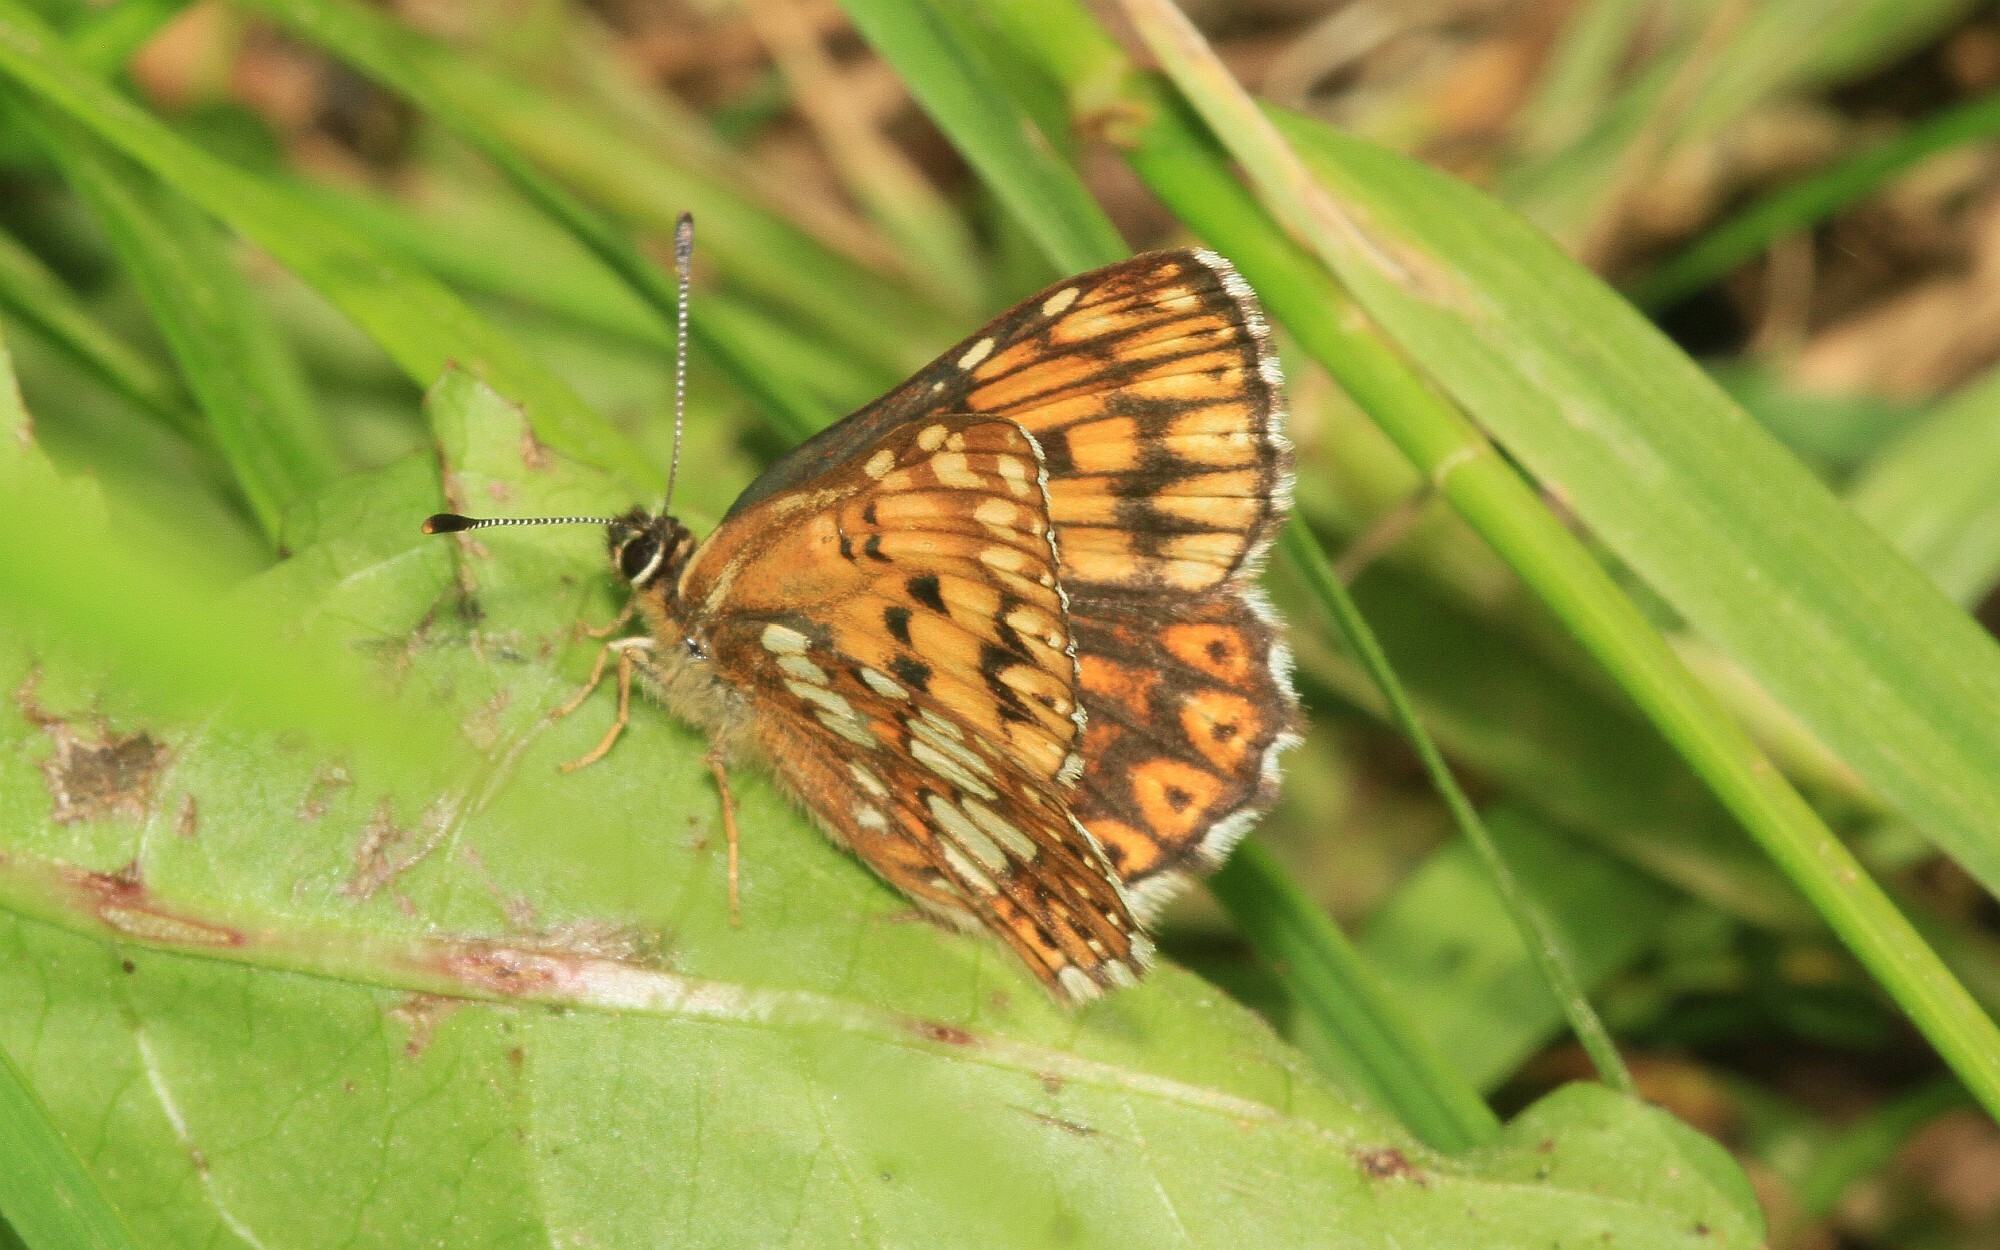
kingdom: Animalia
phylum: Arthropoda
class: Insecta
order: Lepidoptera
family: Riodinidae
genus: Hamearis
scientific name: Hamearis lucina
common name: Duke of burgundy fritillary
